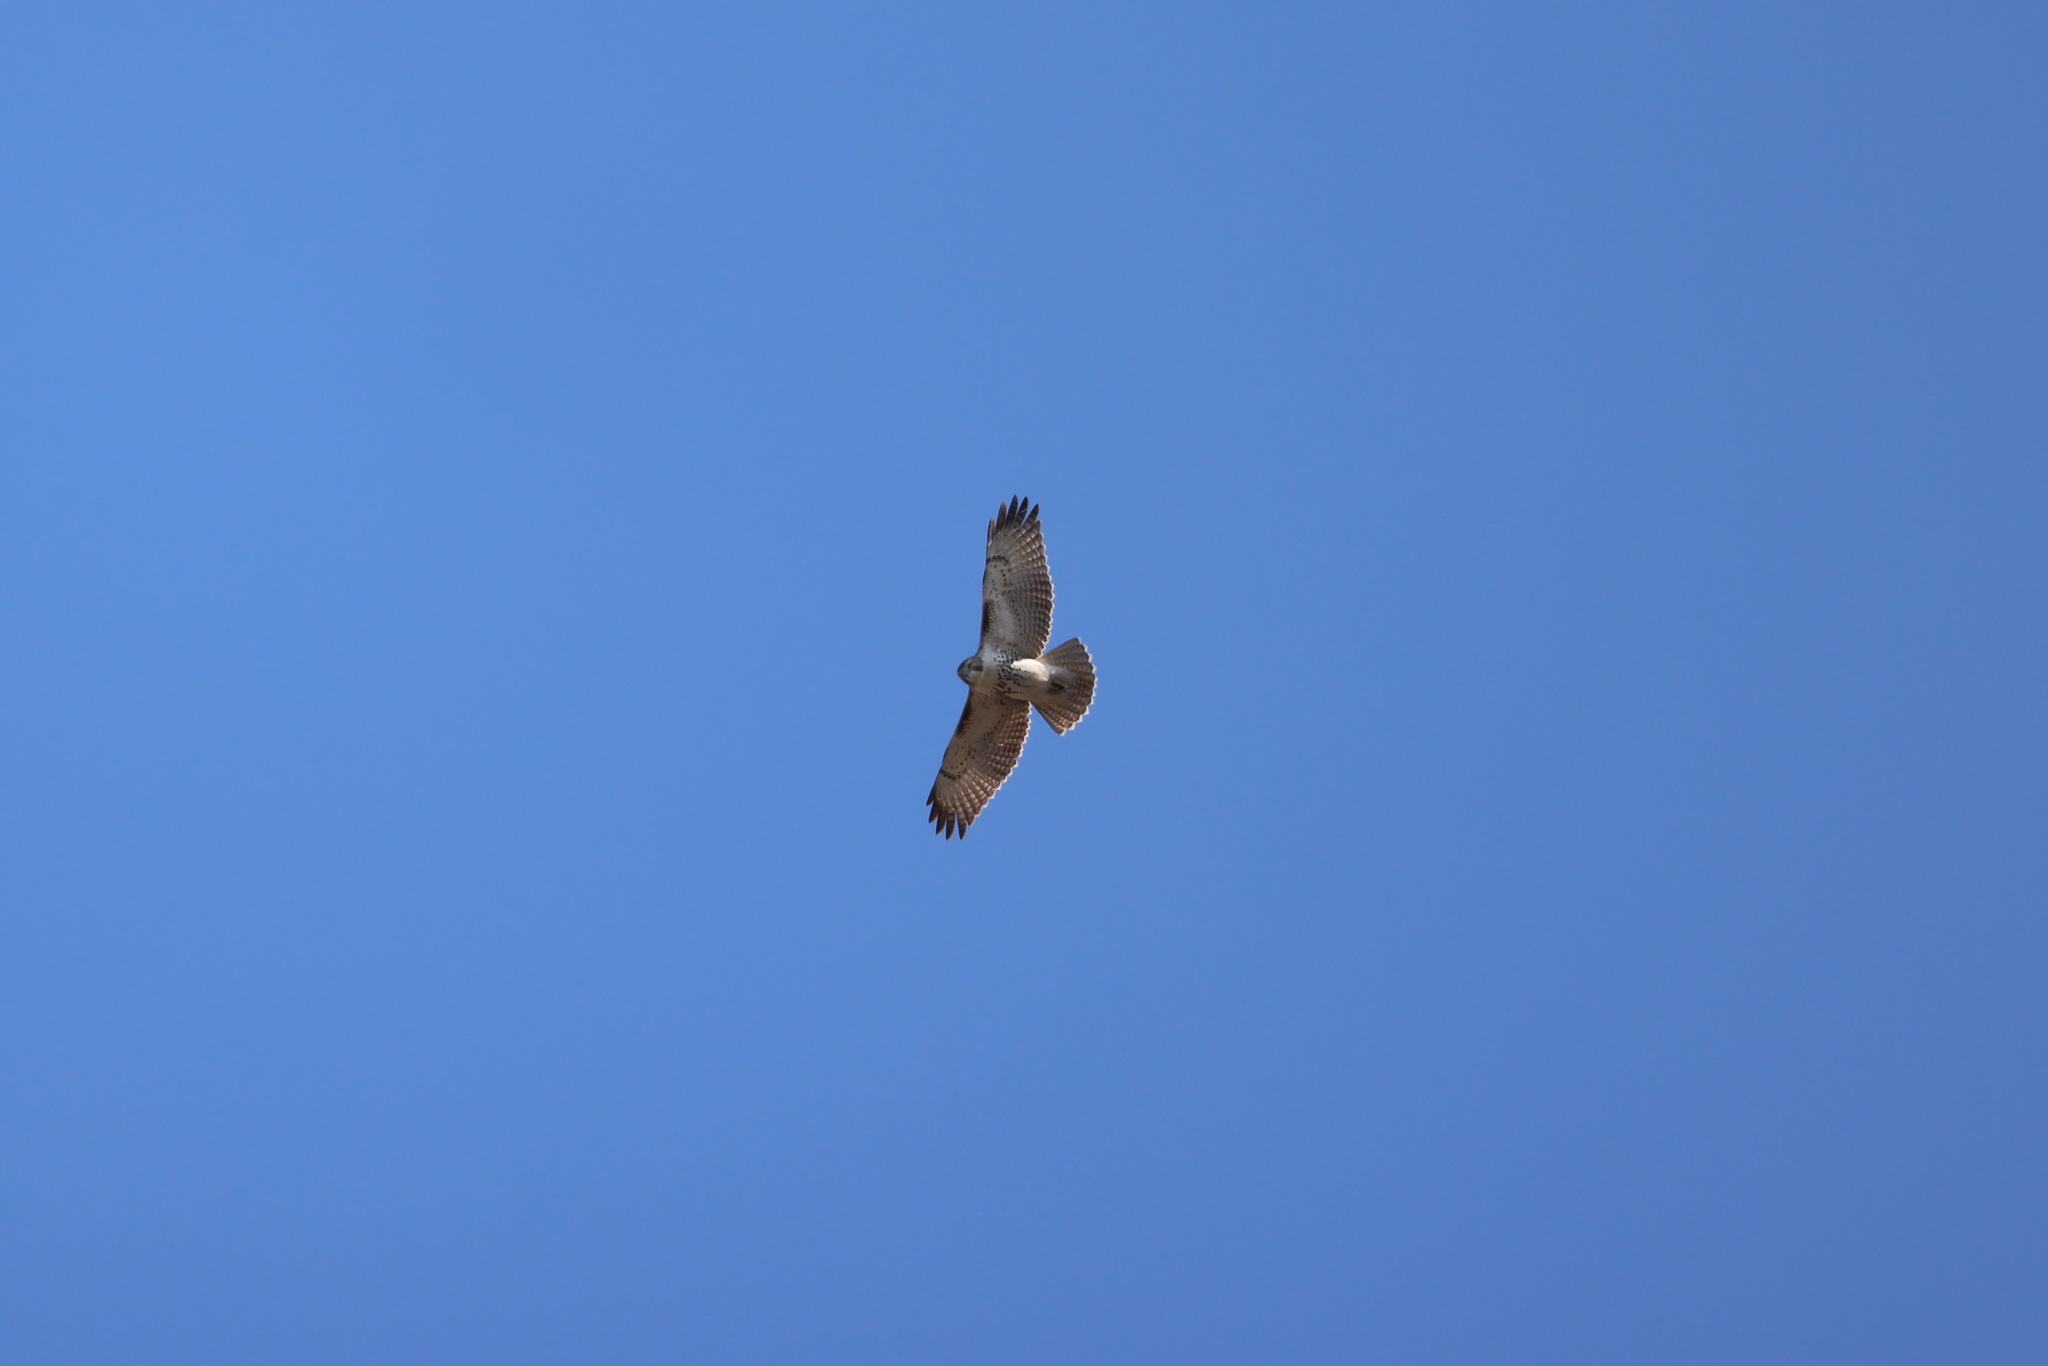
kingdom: Animalia
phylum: Chordata
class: Aves
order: Accipitriformes
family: Accipitridae
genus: Buteo
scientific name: Buteo jamaicensis
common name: Red-tailed hawk
